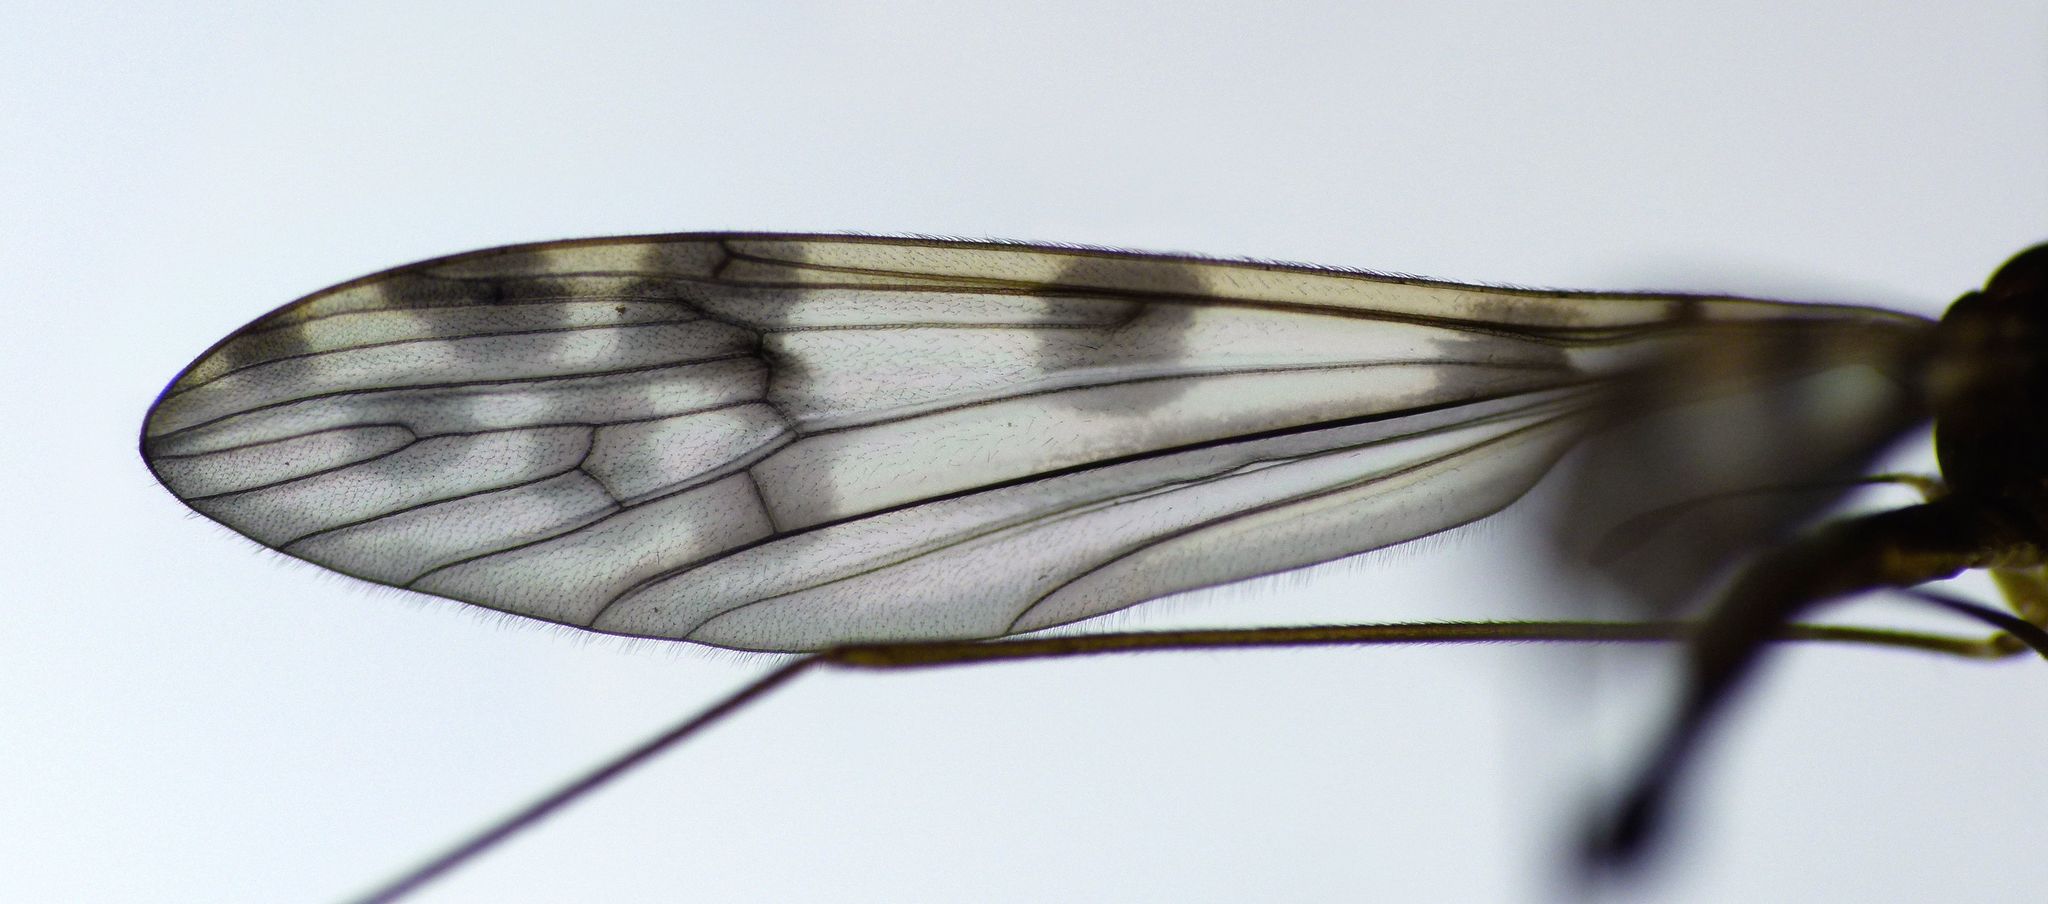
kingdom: Animalia
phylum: Arthropoda
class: Insecta
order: Diptera
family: Limoniidae
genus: Nothophila
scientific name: Nothophila nebulosa
